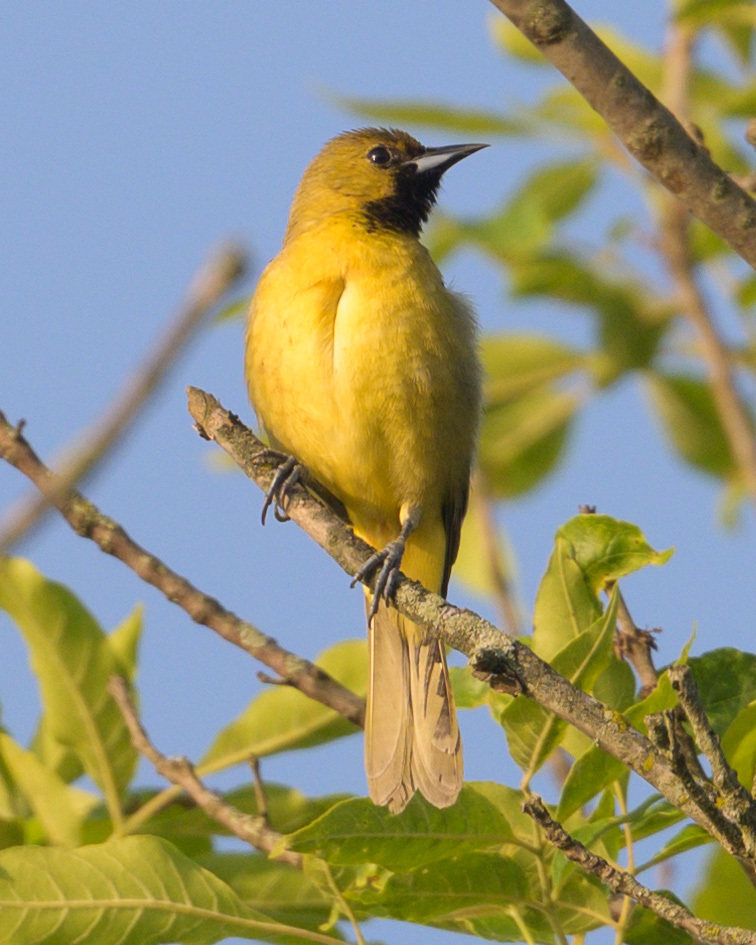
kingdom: Animalia
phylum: Chordata
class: Aves
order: Passeriformes
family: Icteridae
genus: Icterus
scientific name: Icterus spurius
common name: Orchard oriole
